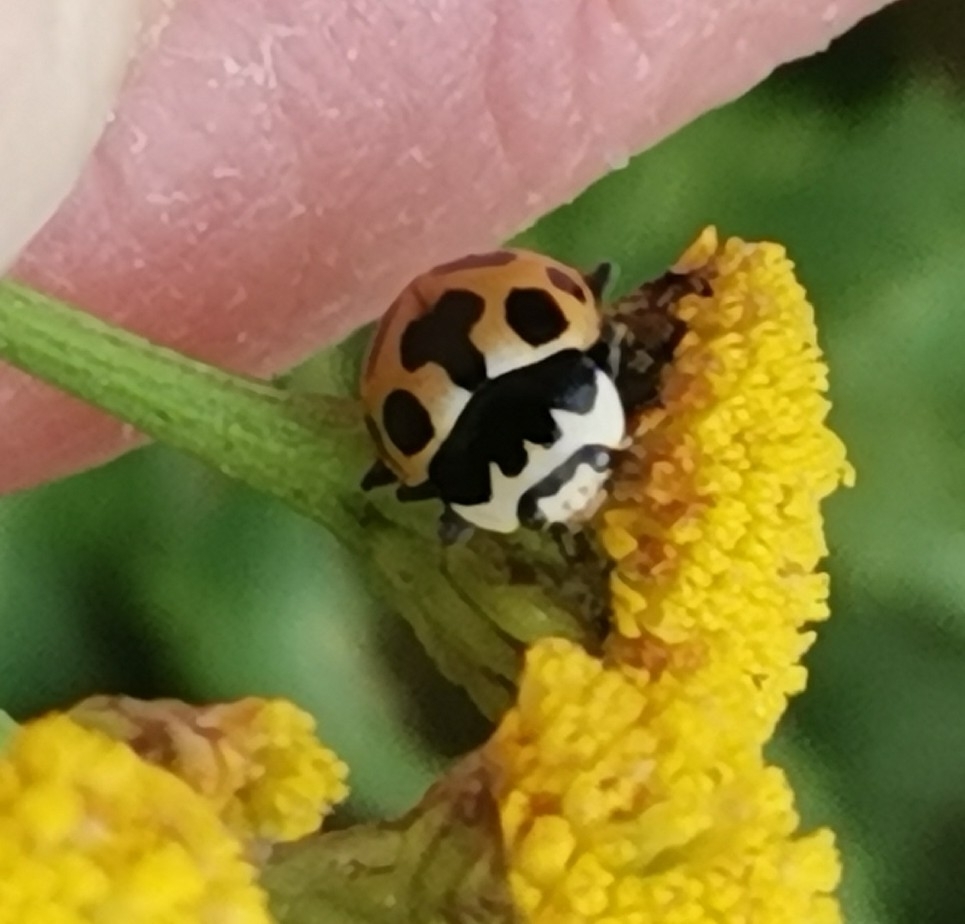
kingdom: Animalia
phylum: Arthropoda
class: Insecta
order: Coleoptera
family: Coccinellidae
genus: Ceratomegilla
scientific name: Ceratomegilla notata
